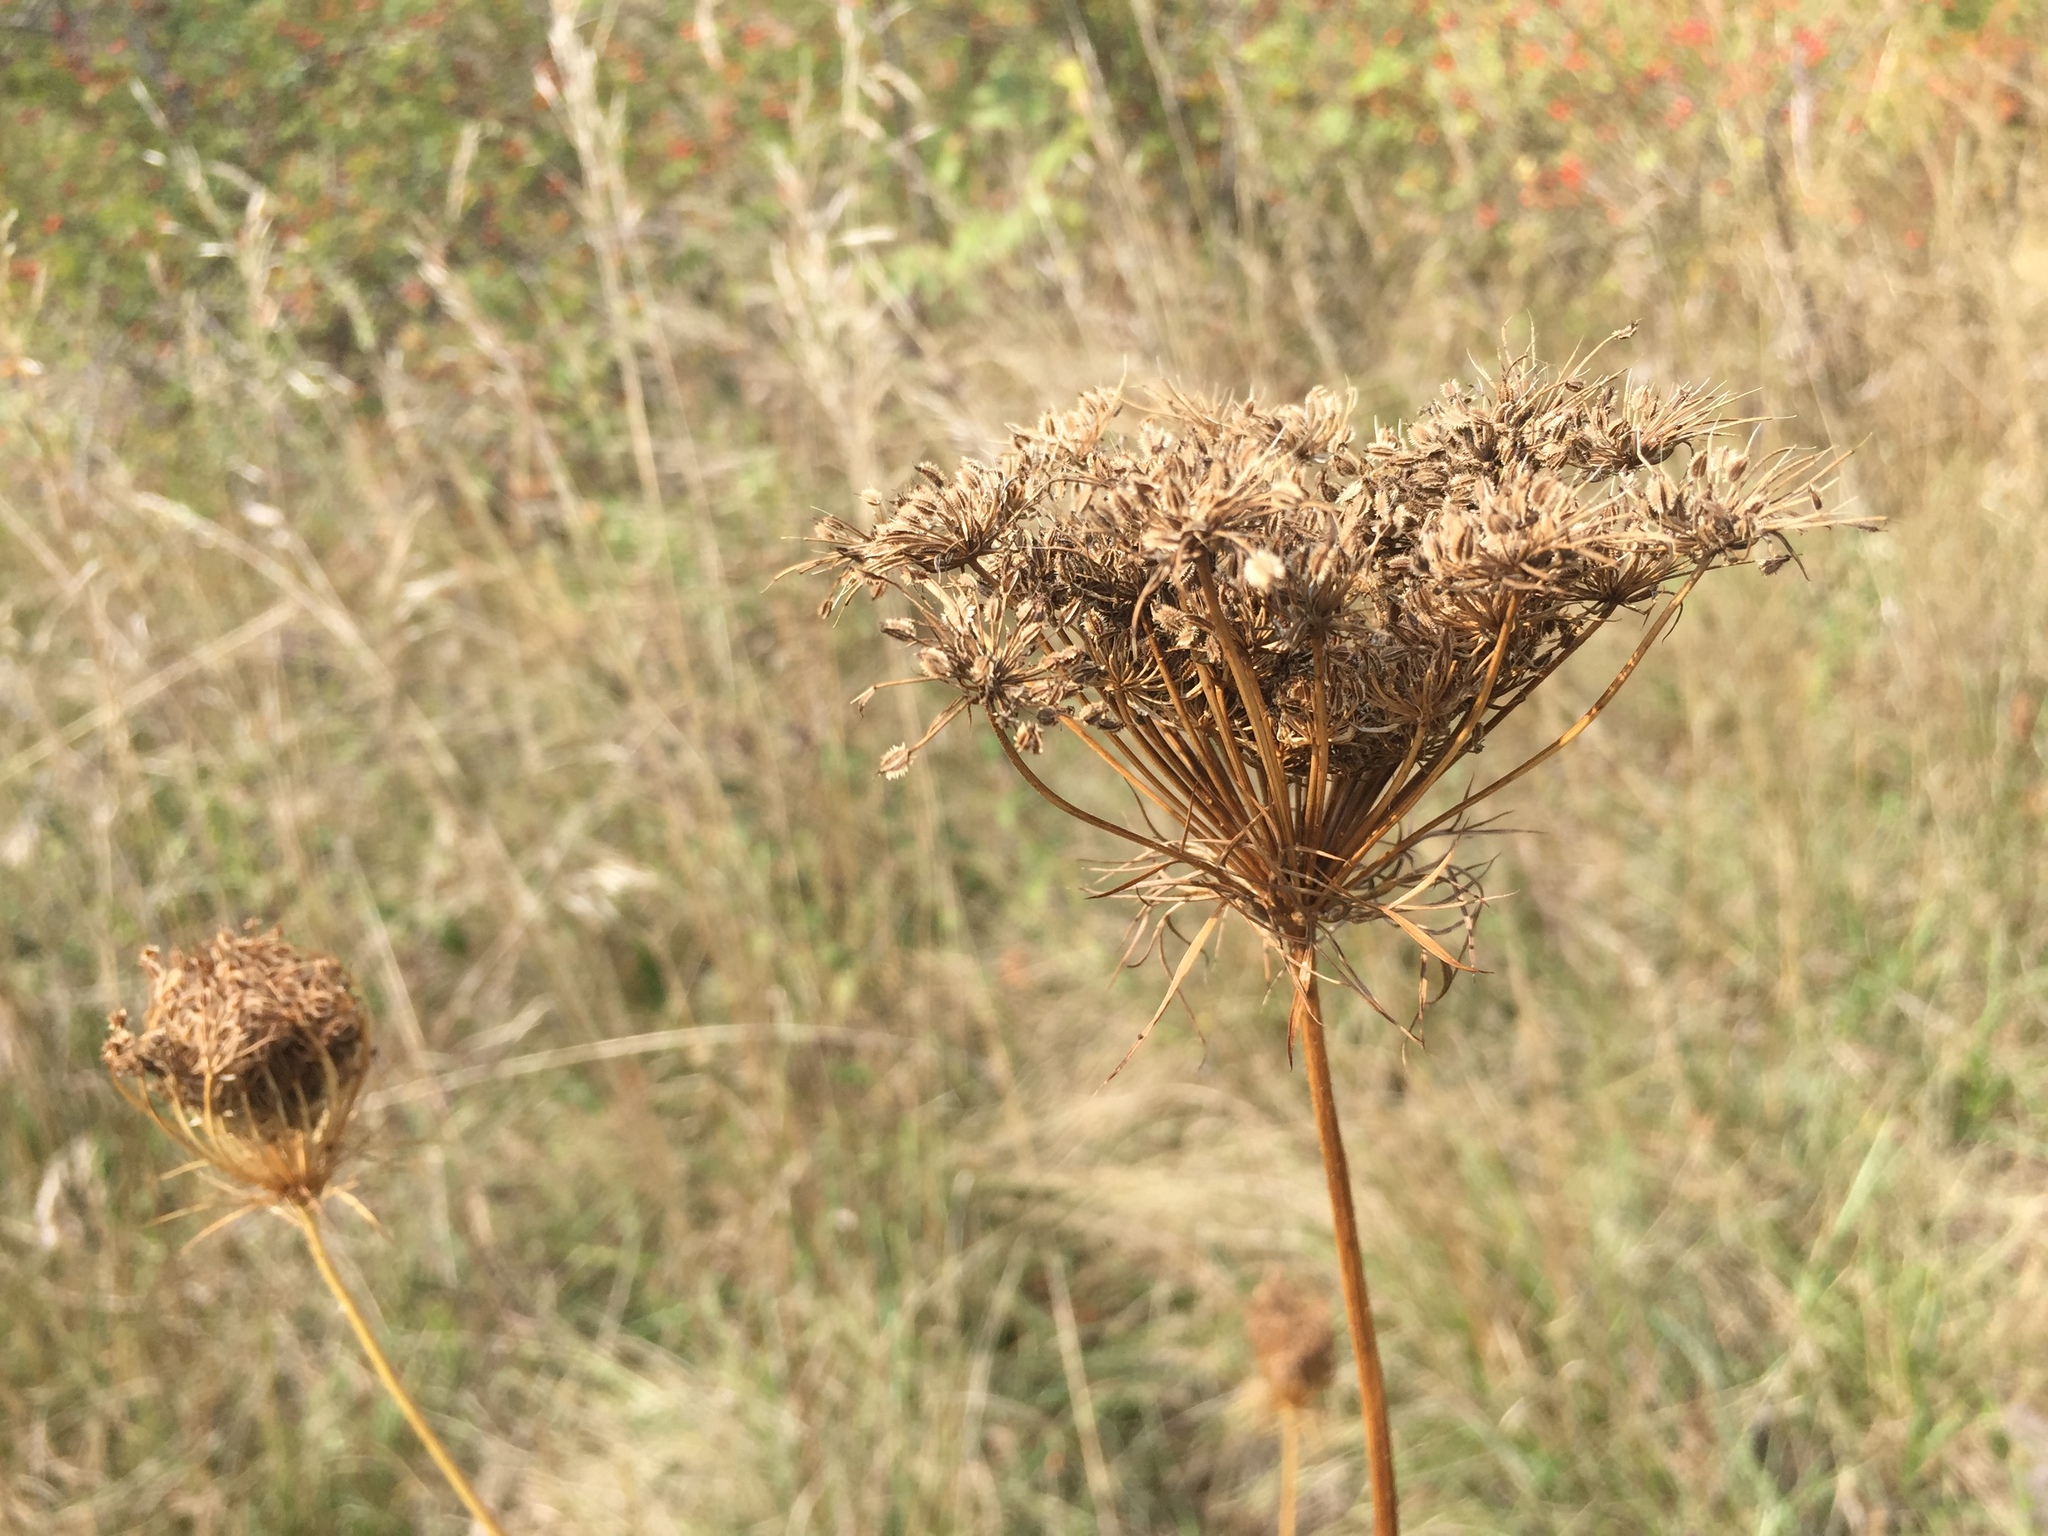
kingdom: Plantae
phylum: Tracheophyta
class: Magnoliopsida
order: Apiales
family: Apiaceae
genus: Daucus
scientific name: Daucus carota
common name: Wild carrot
